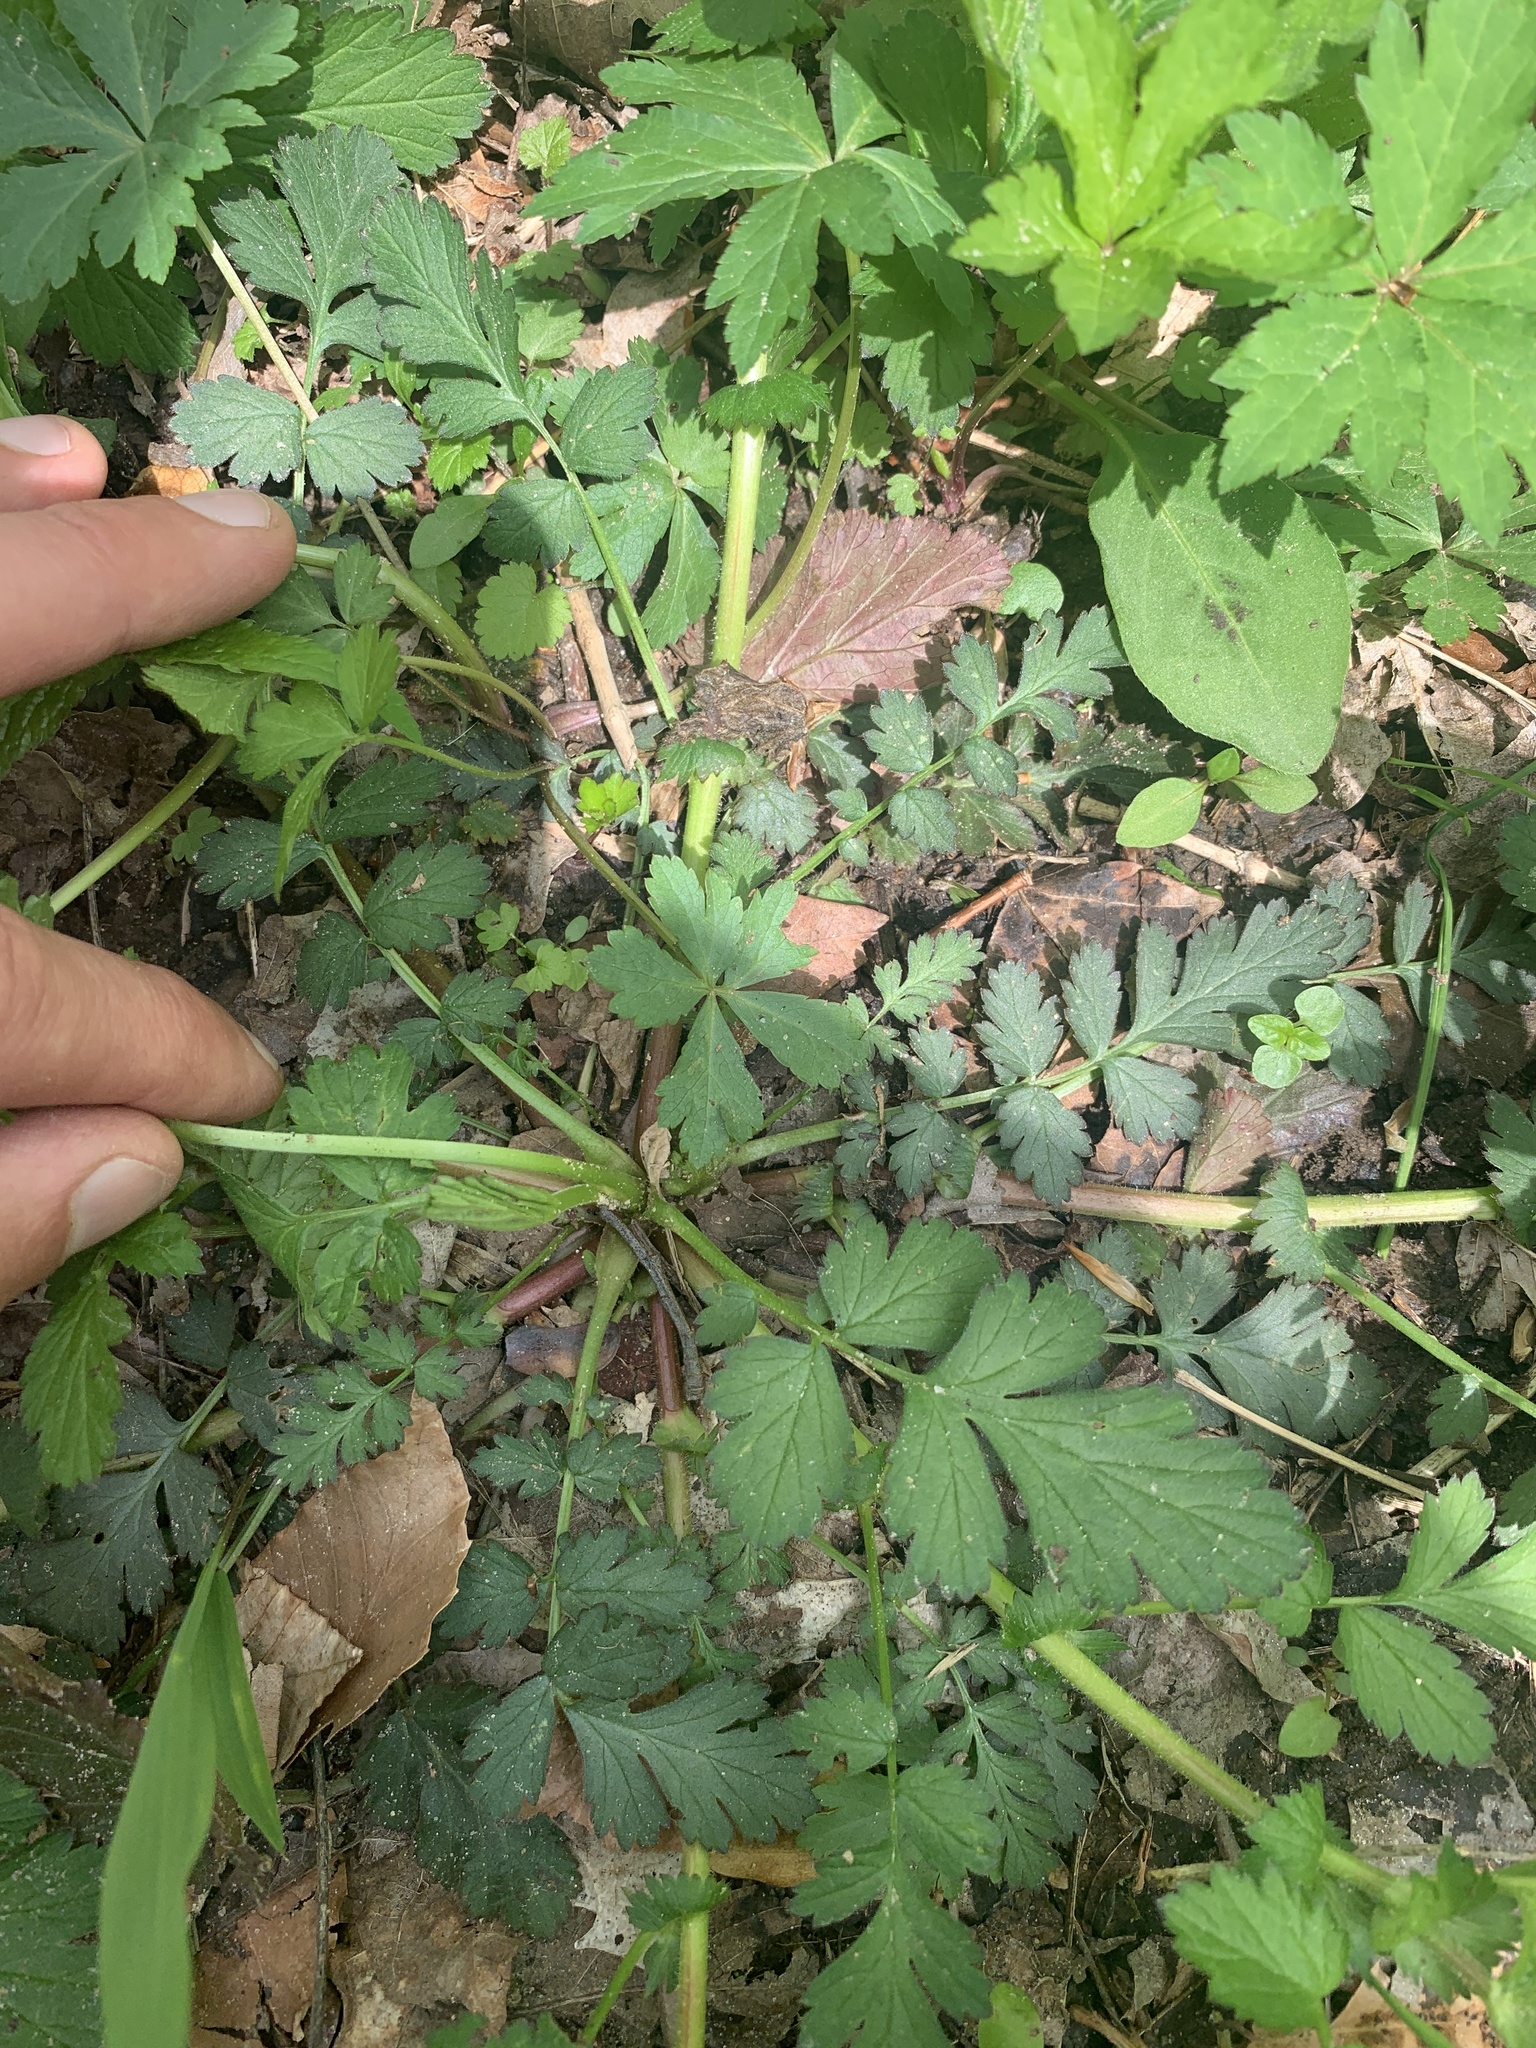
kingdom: Plantae
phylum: Tracheophyta
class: Magnoliopsida
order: Rosales
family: Rosaceae
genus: Geum
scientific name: Geum vernum
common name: Spring avens
